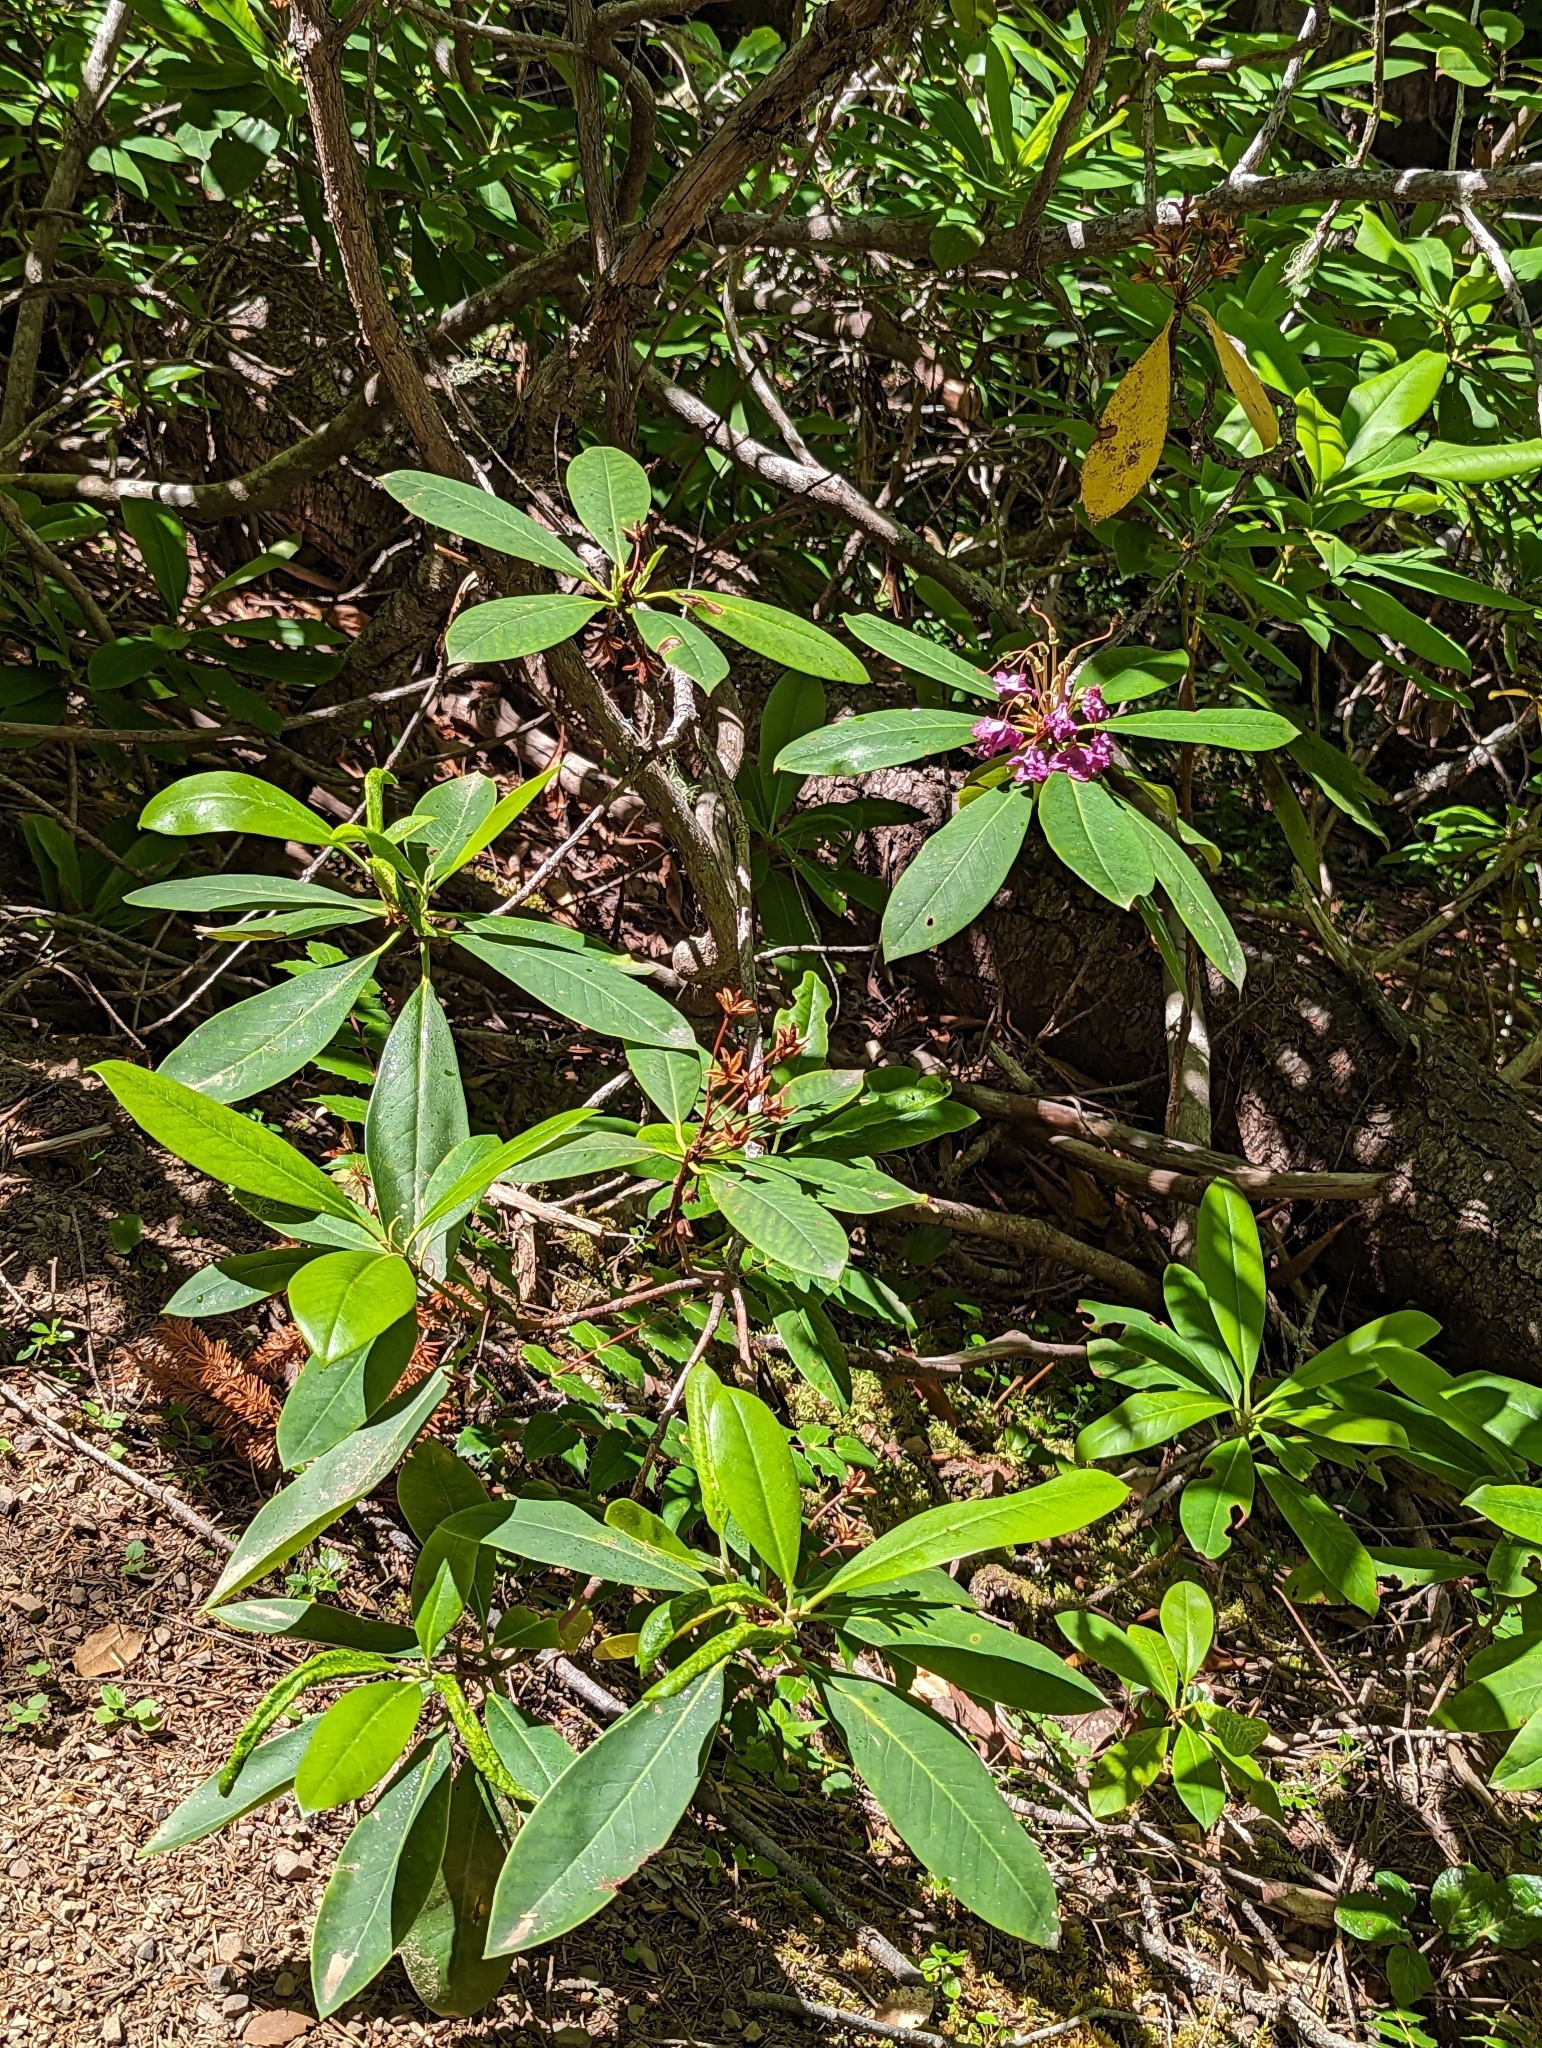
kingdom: Plantae
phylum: Tracheophyta
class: Magnoliopsida
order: Ericales
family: Ericaceae
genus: Rhododendron
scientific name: Rhododendron macrophyllum
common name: California rose bay
